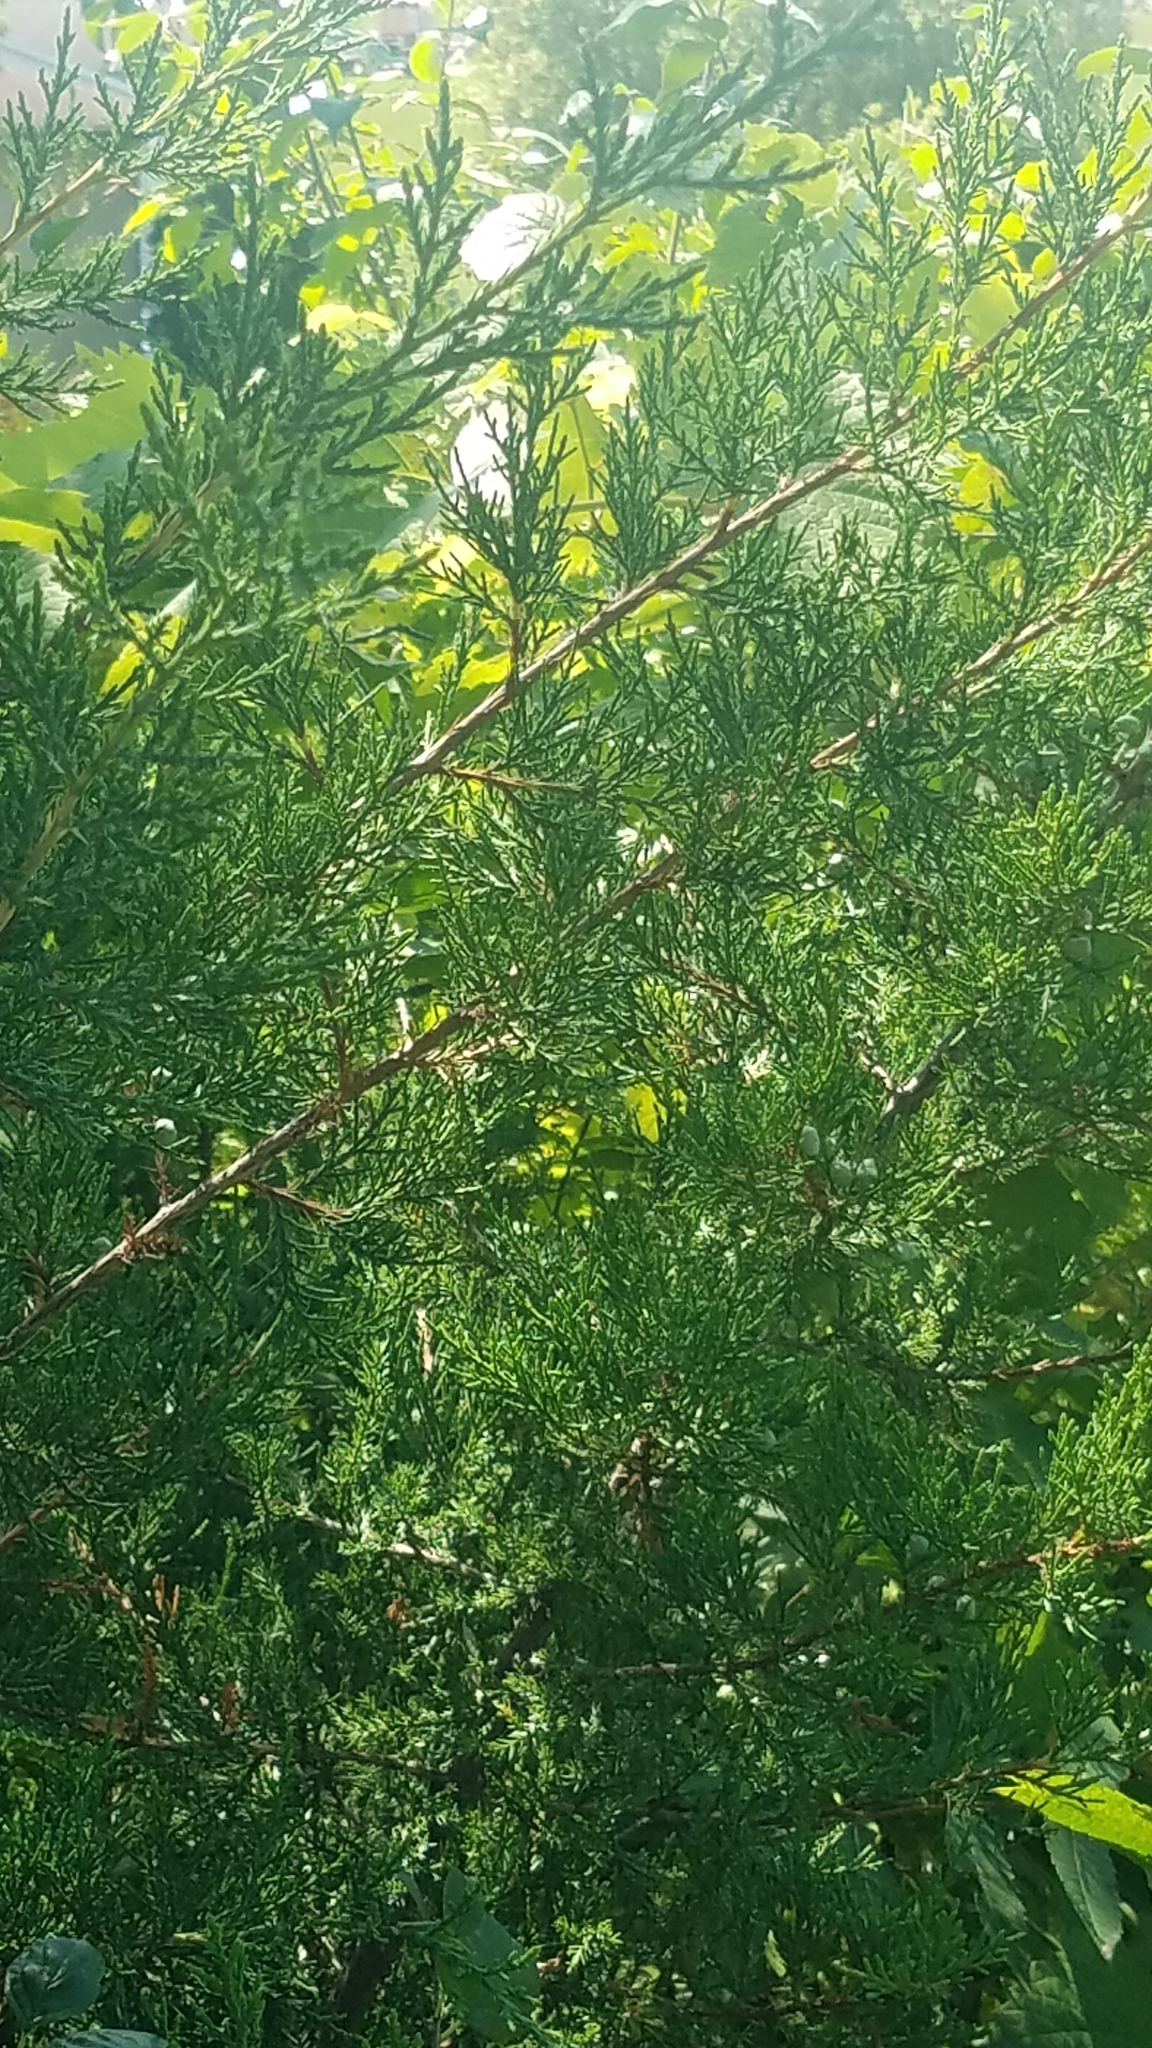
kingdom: Plantae
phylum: Tracheophyta
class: Pinopsida
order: Pinales
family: Cupressaceae
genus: Juniperus
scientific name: Juniperus virginiana
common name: Red juniper
